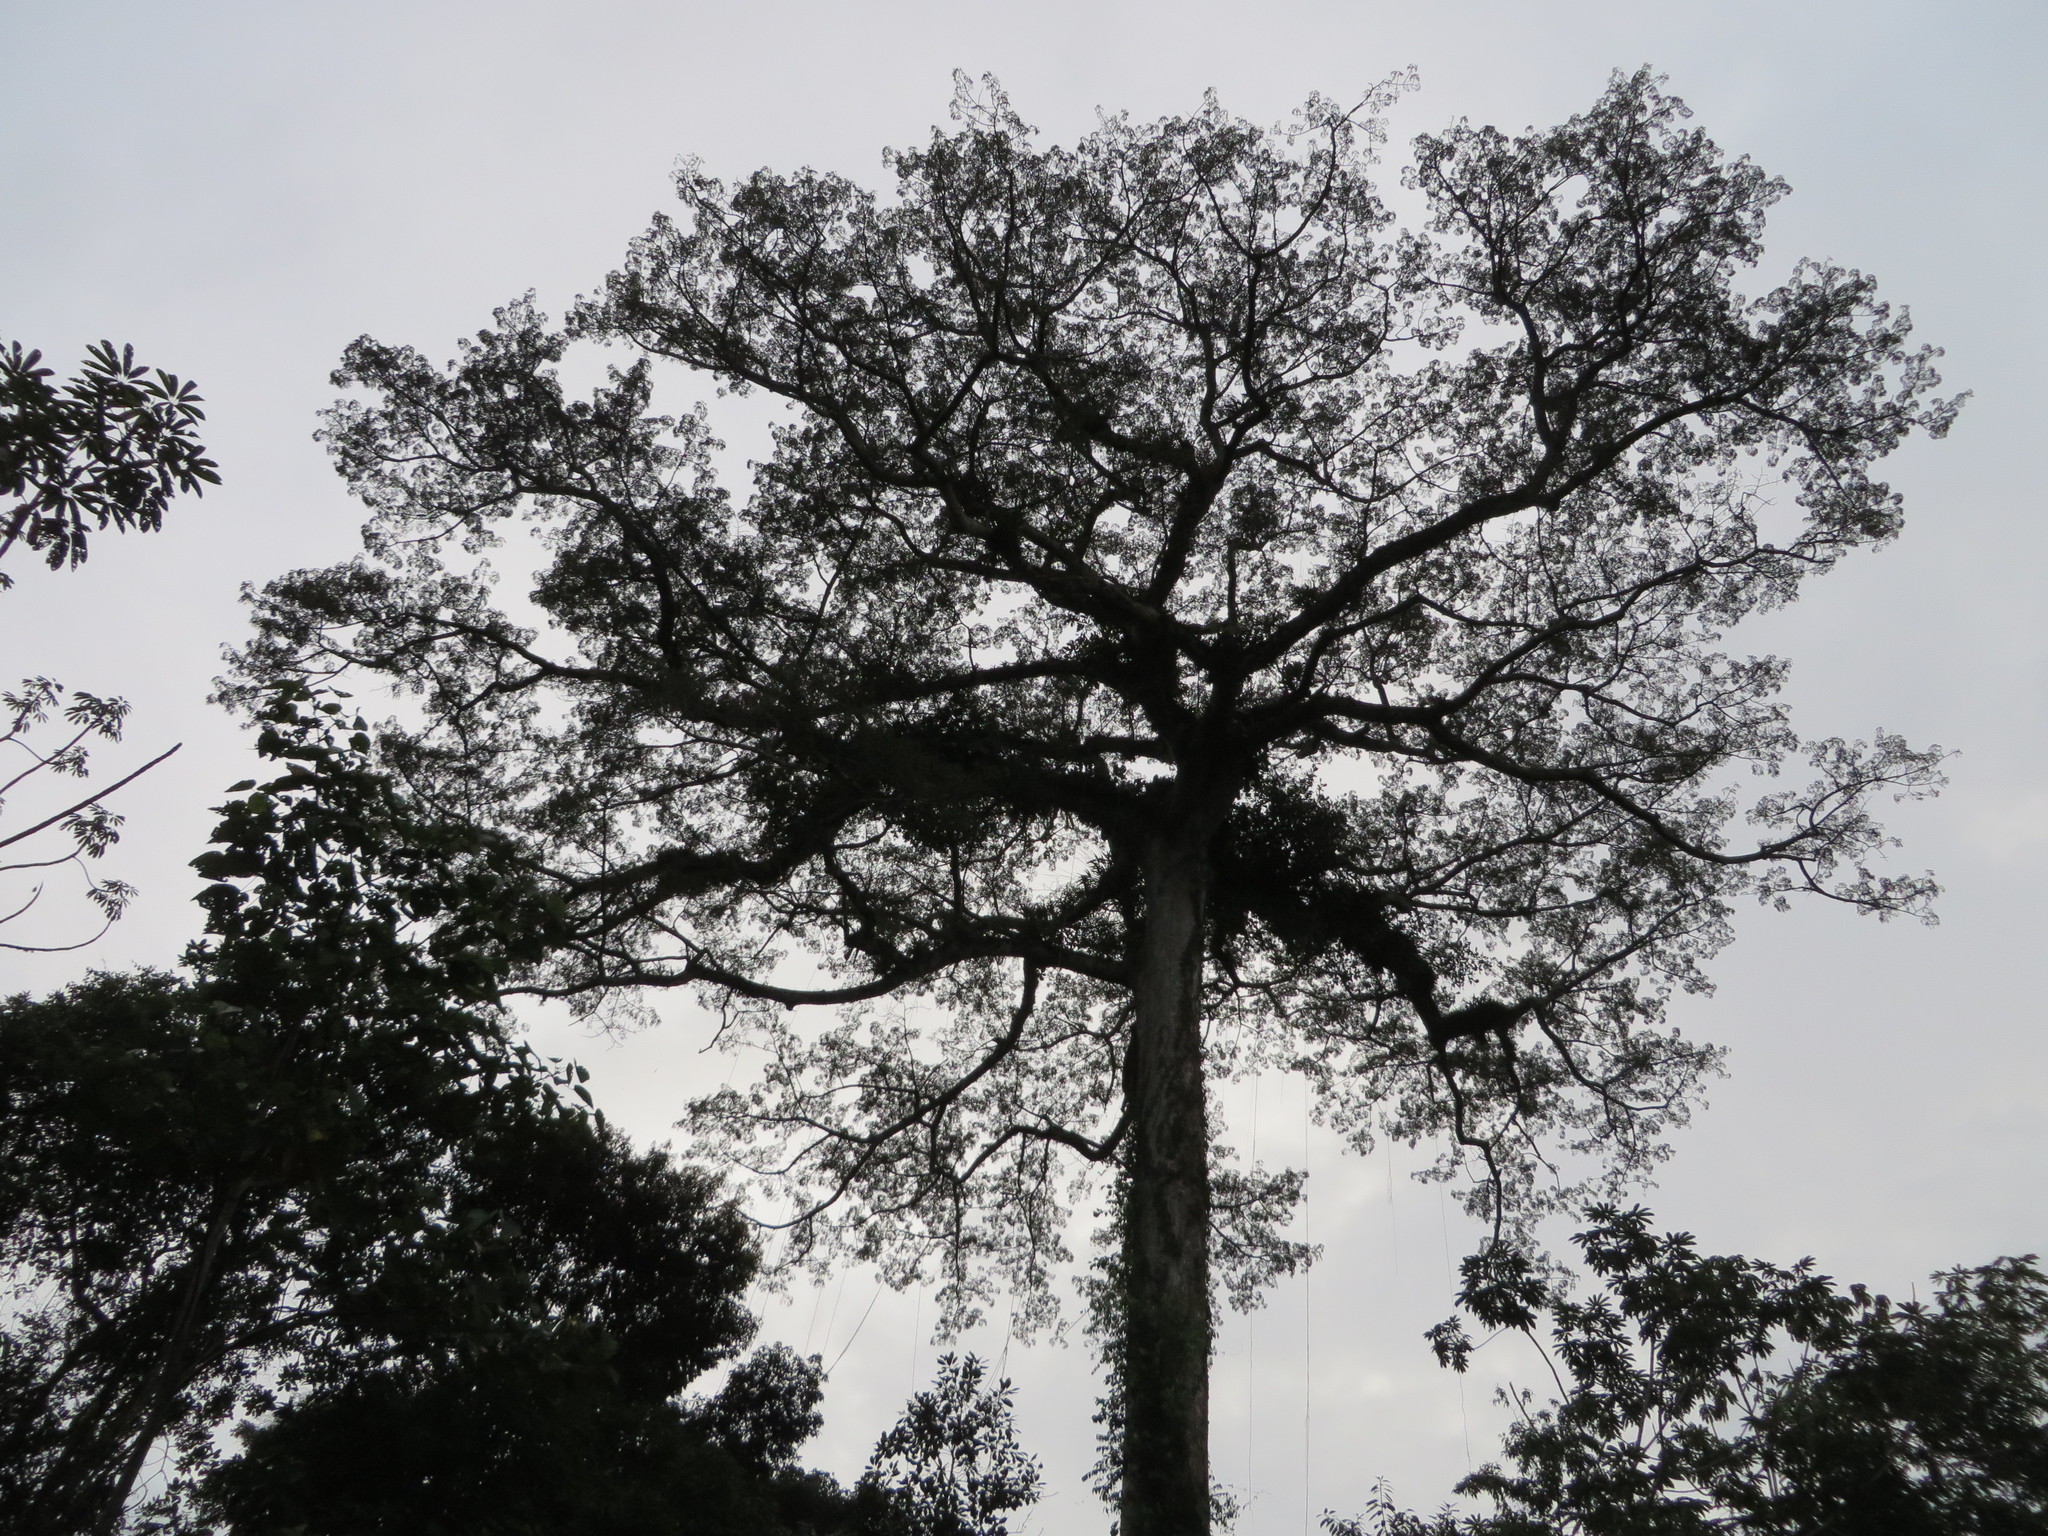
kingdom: Plantae
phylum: Tracheophyta
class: Magnoliopsida
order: Malvales
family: Malvaceae
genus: Ceiba
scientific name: Ceiba pentandra
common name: Kapok
